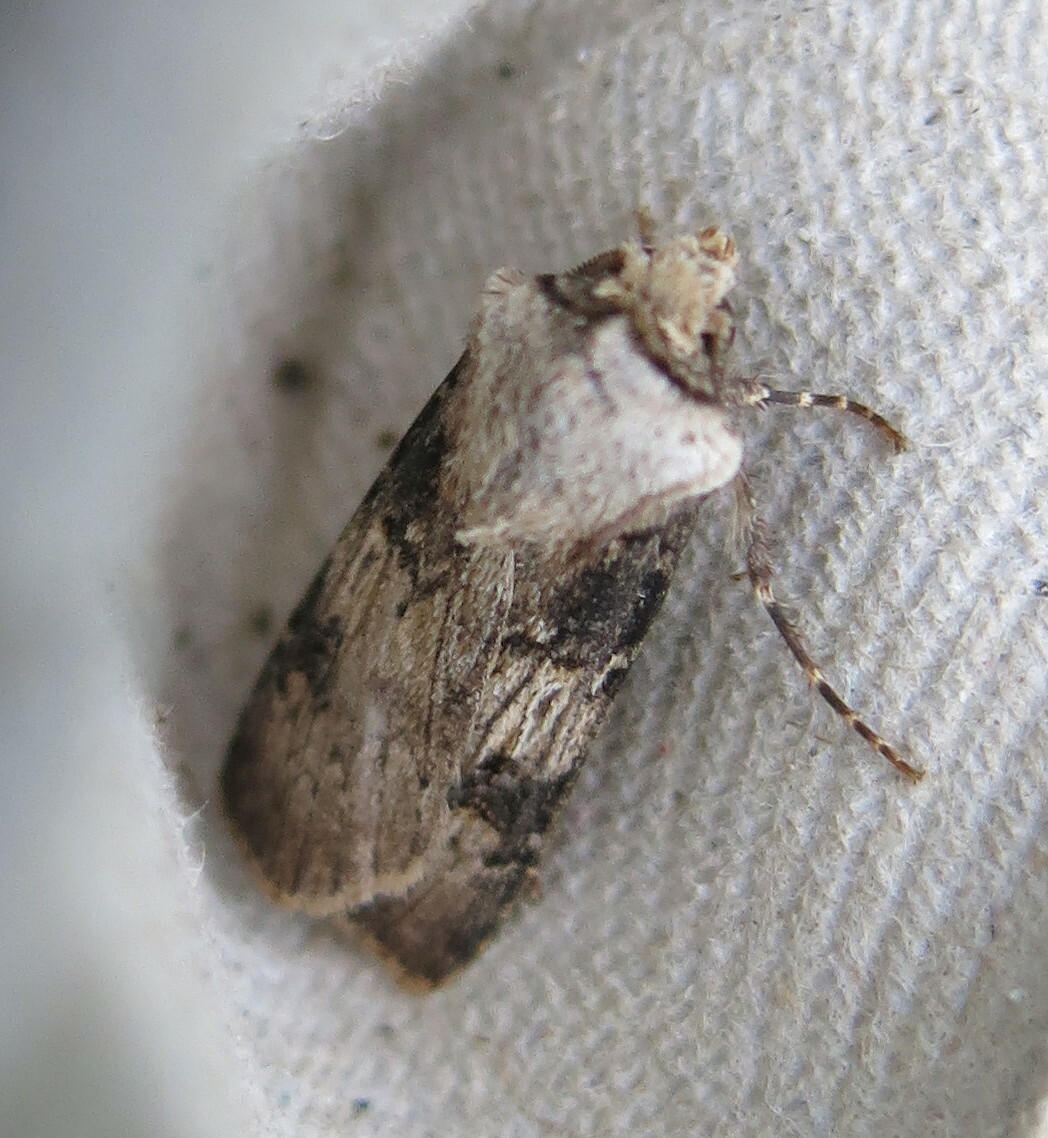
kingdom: Animalia
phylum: Arthropoda
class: Insecta
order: Lepidoptera
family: Noctuidae
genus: Agrotis
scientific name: Agrotis puta
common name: Shuttle-shaped dart
